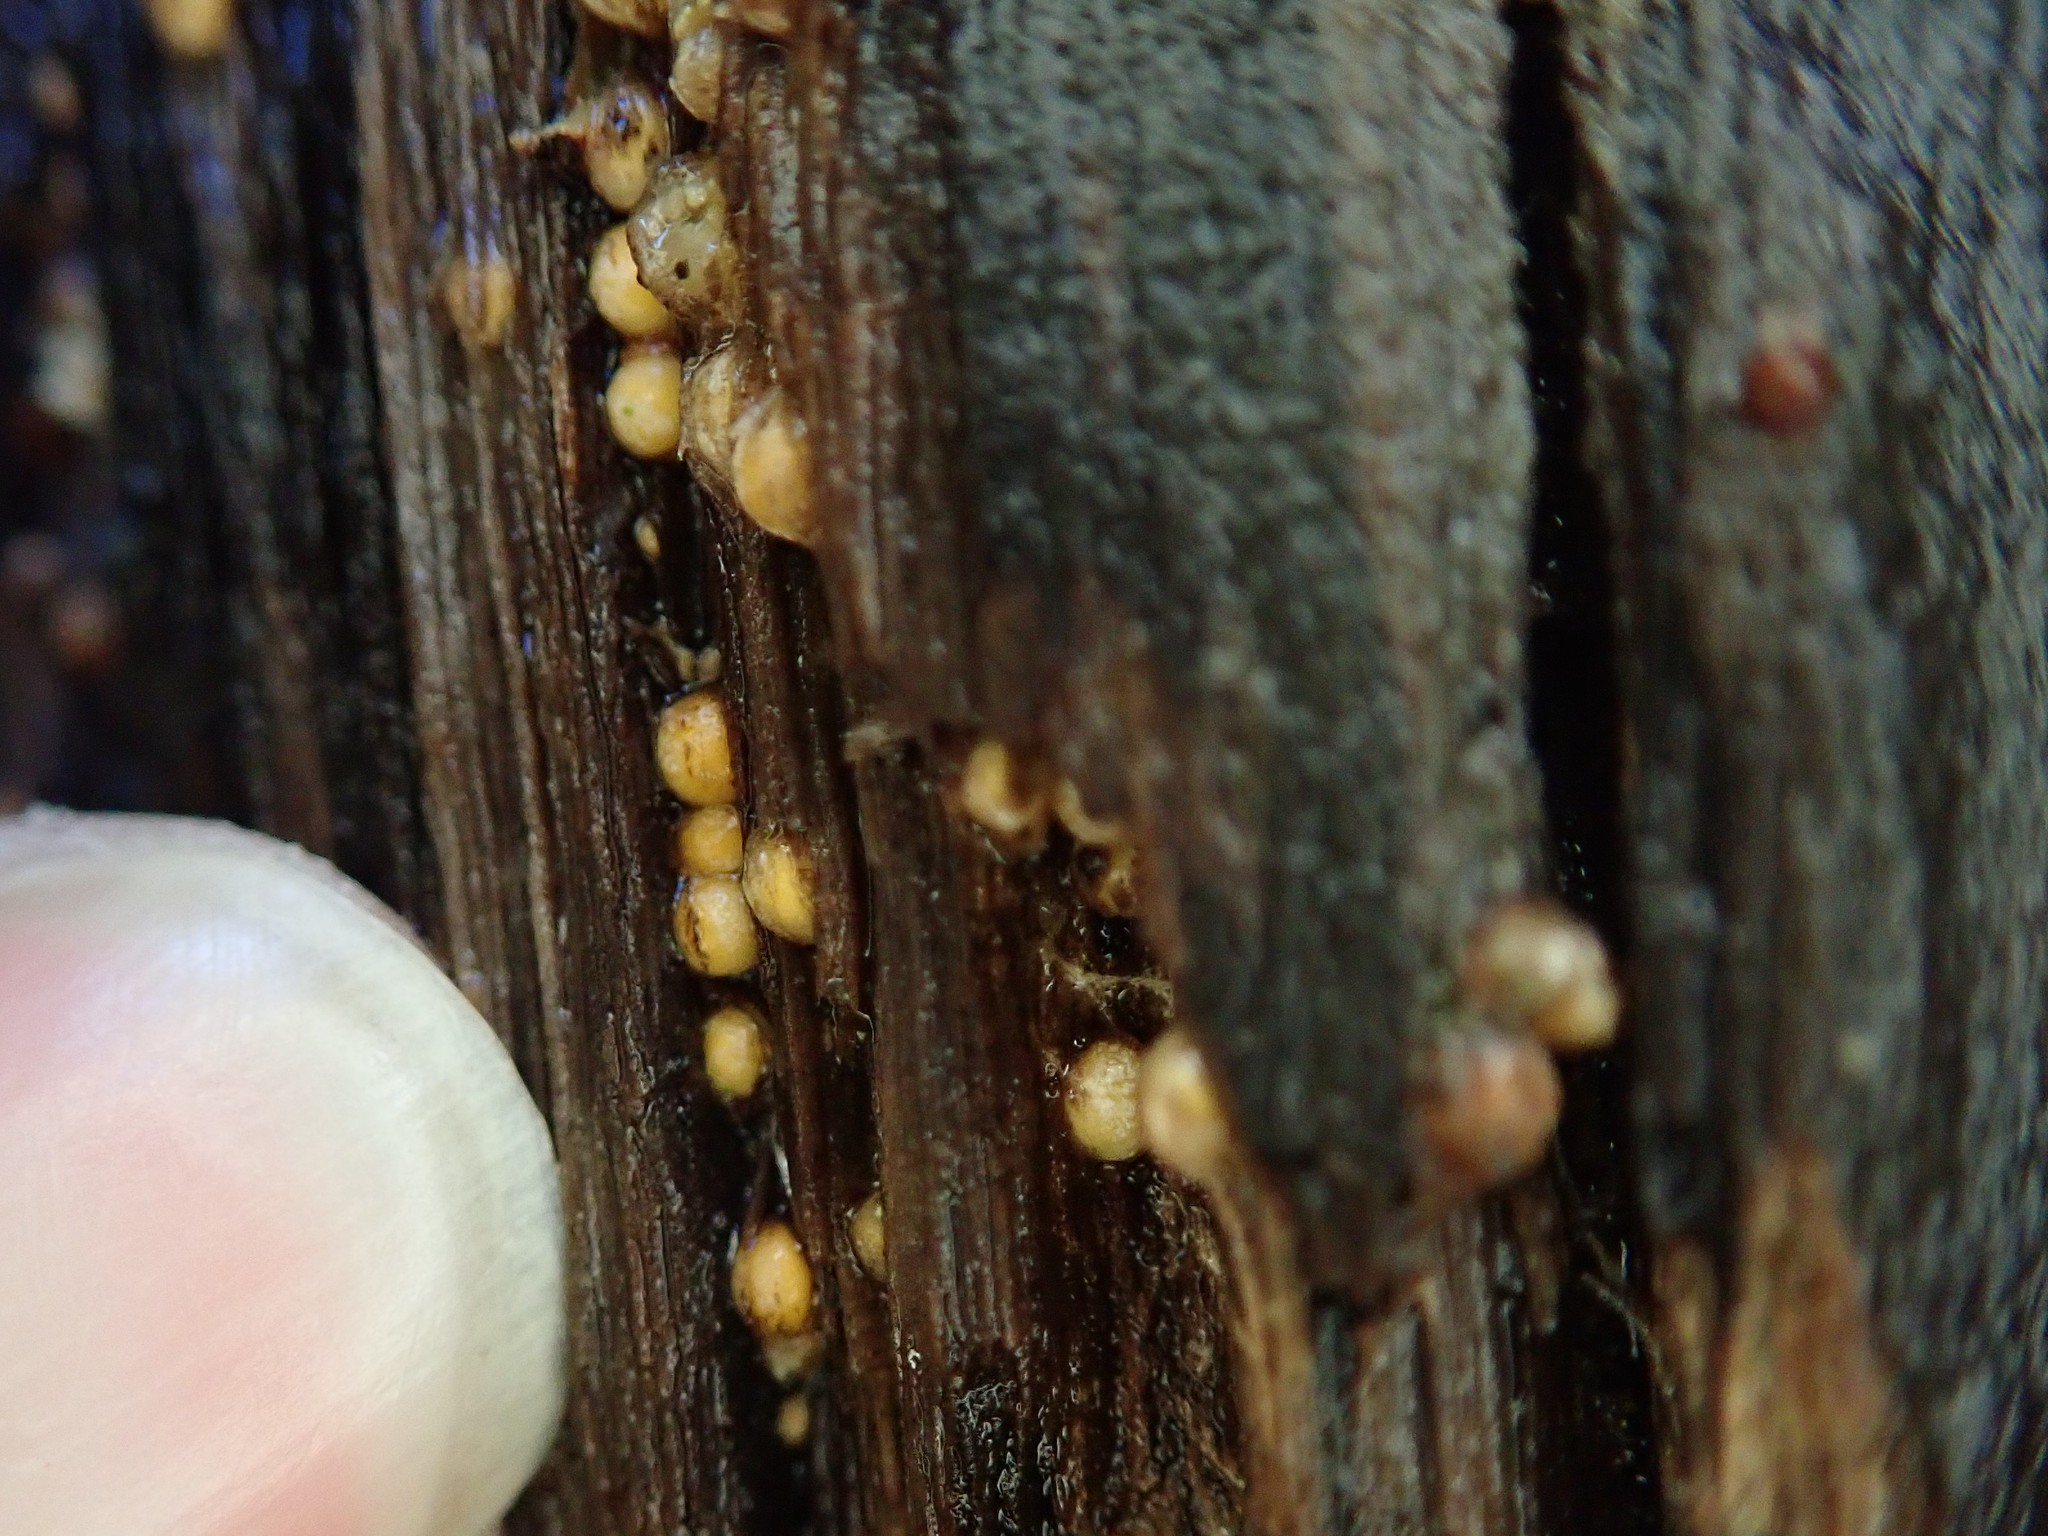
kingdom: Fungi
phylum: Basidiomycota
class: Agaricomycetes
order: Geastrales
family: Geastraceae
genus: Sphaerobolus
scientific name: Sphaerobolus stellatus
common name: Cannon fungus
